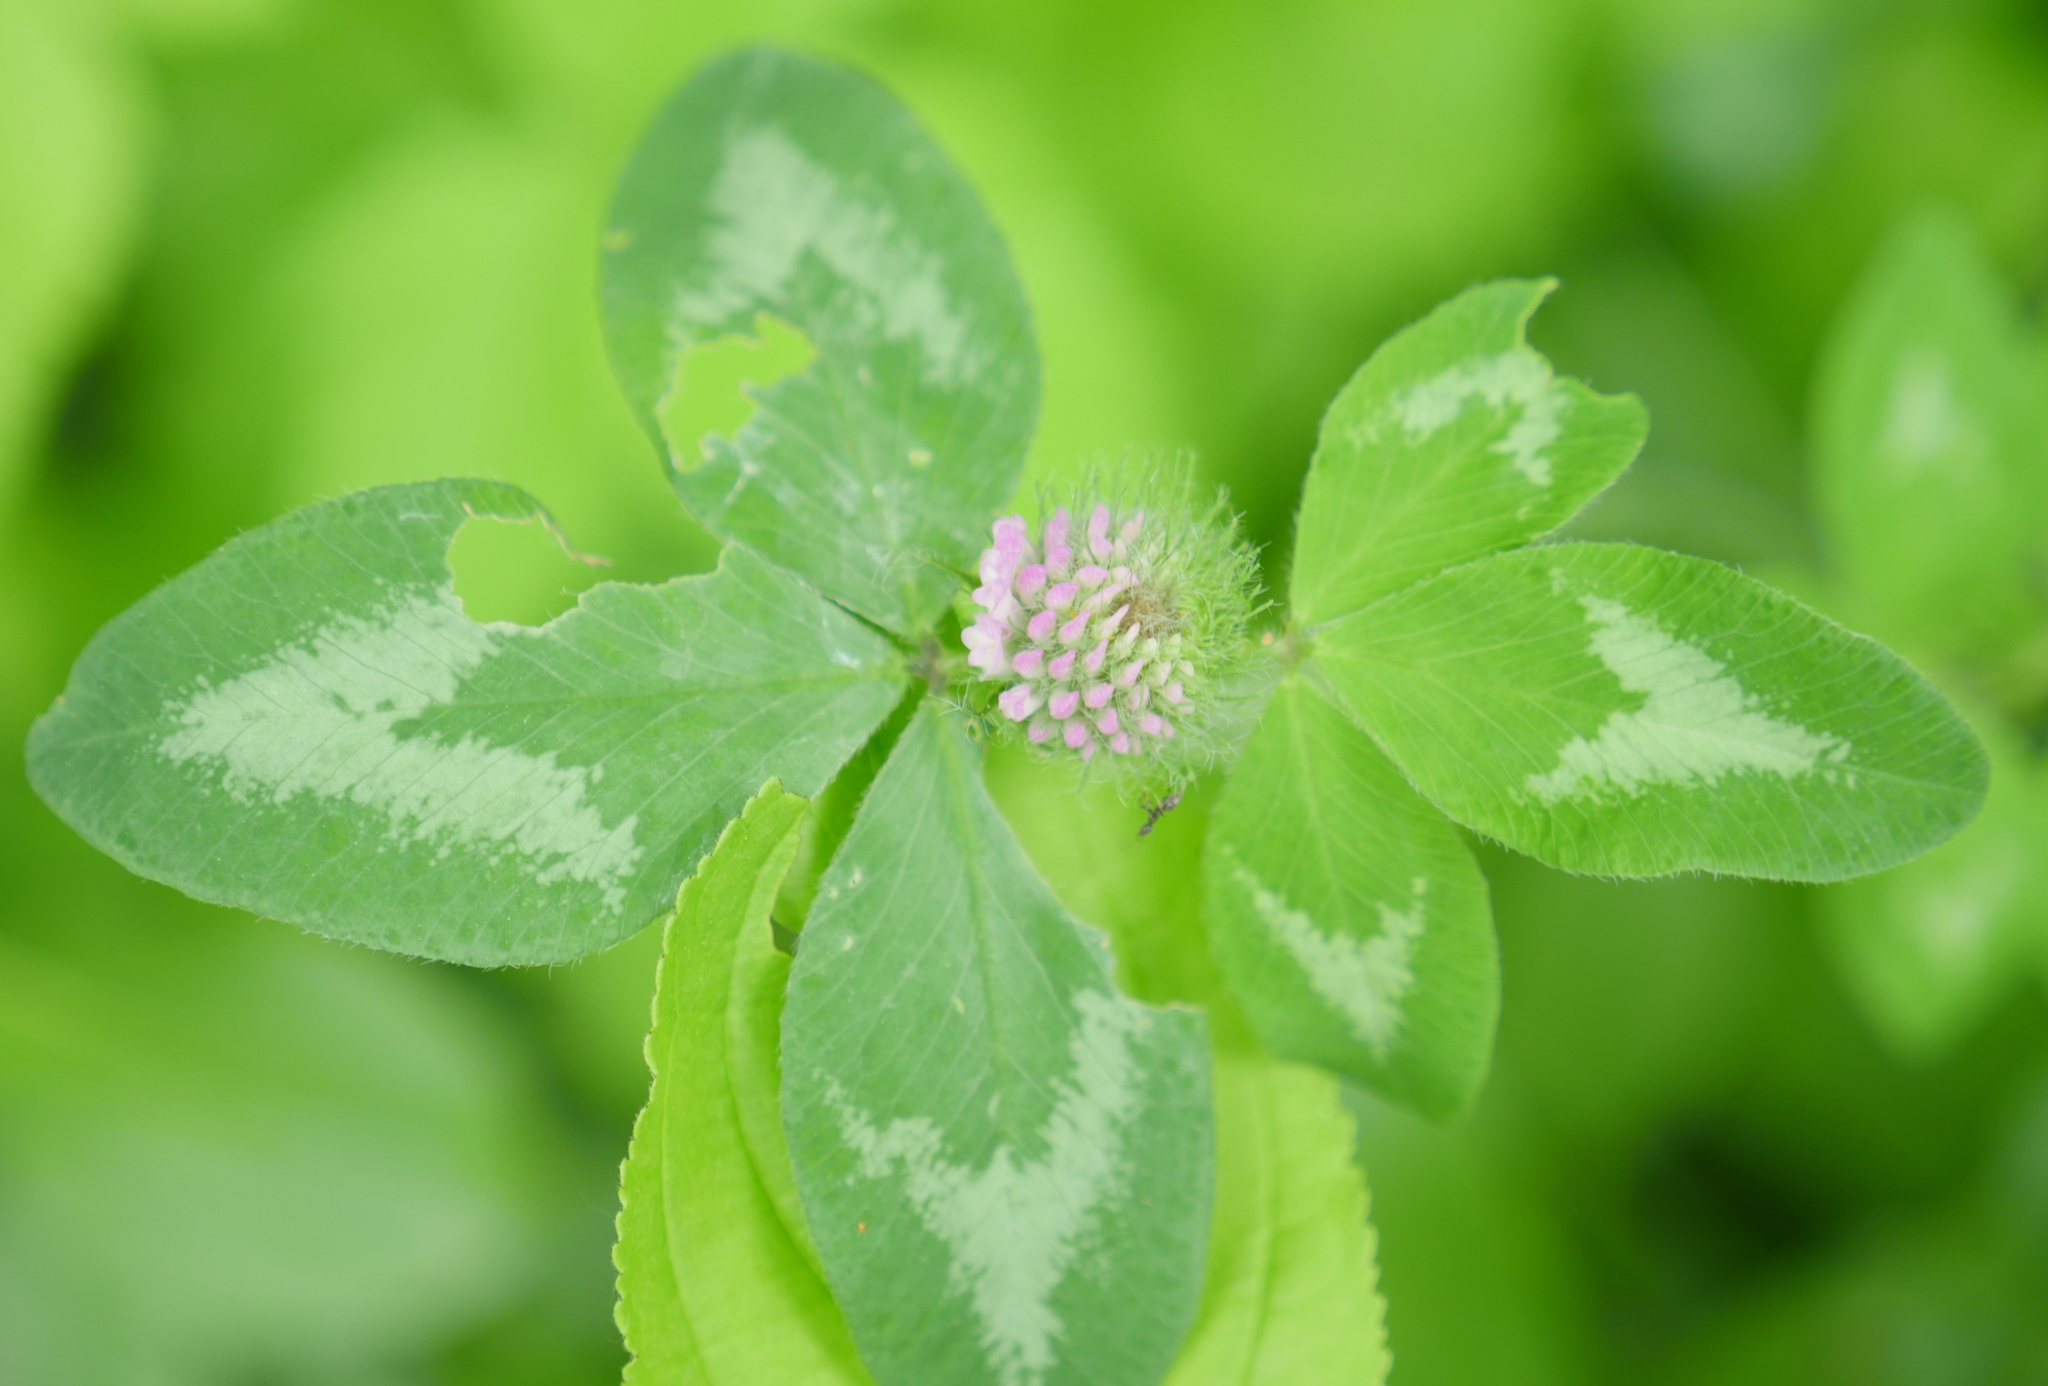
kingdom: Plantae
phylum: Tracheophyta
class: Magnoliopsida
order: Fabales
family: Fabaceae
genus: Trifolium
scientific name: Trifolium pratense
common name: Red clover
